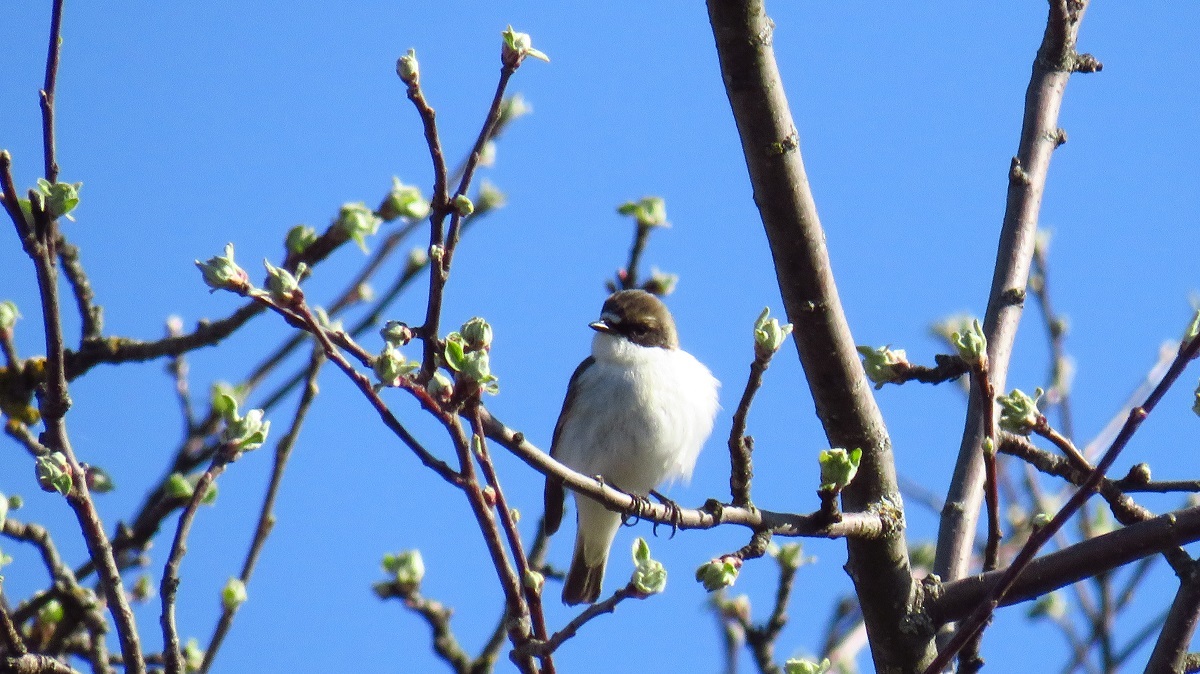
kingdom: Animalia
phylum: Chordata
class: Aves
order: Passeriformes
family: Muscicapidae
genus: Ficedula
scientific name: Ficedula hypoleuca
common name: European pied flycatcher
